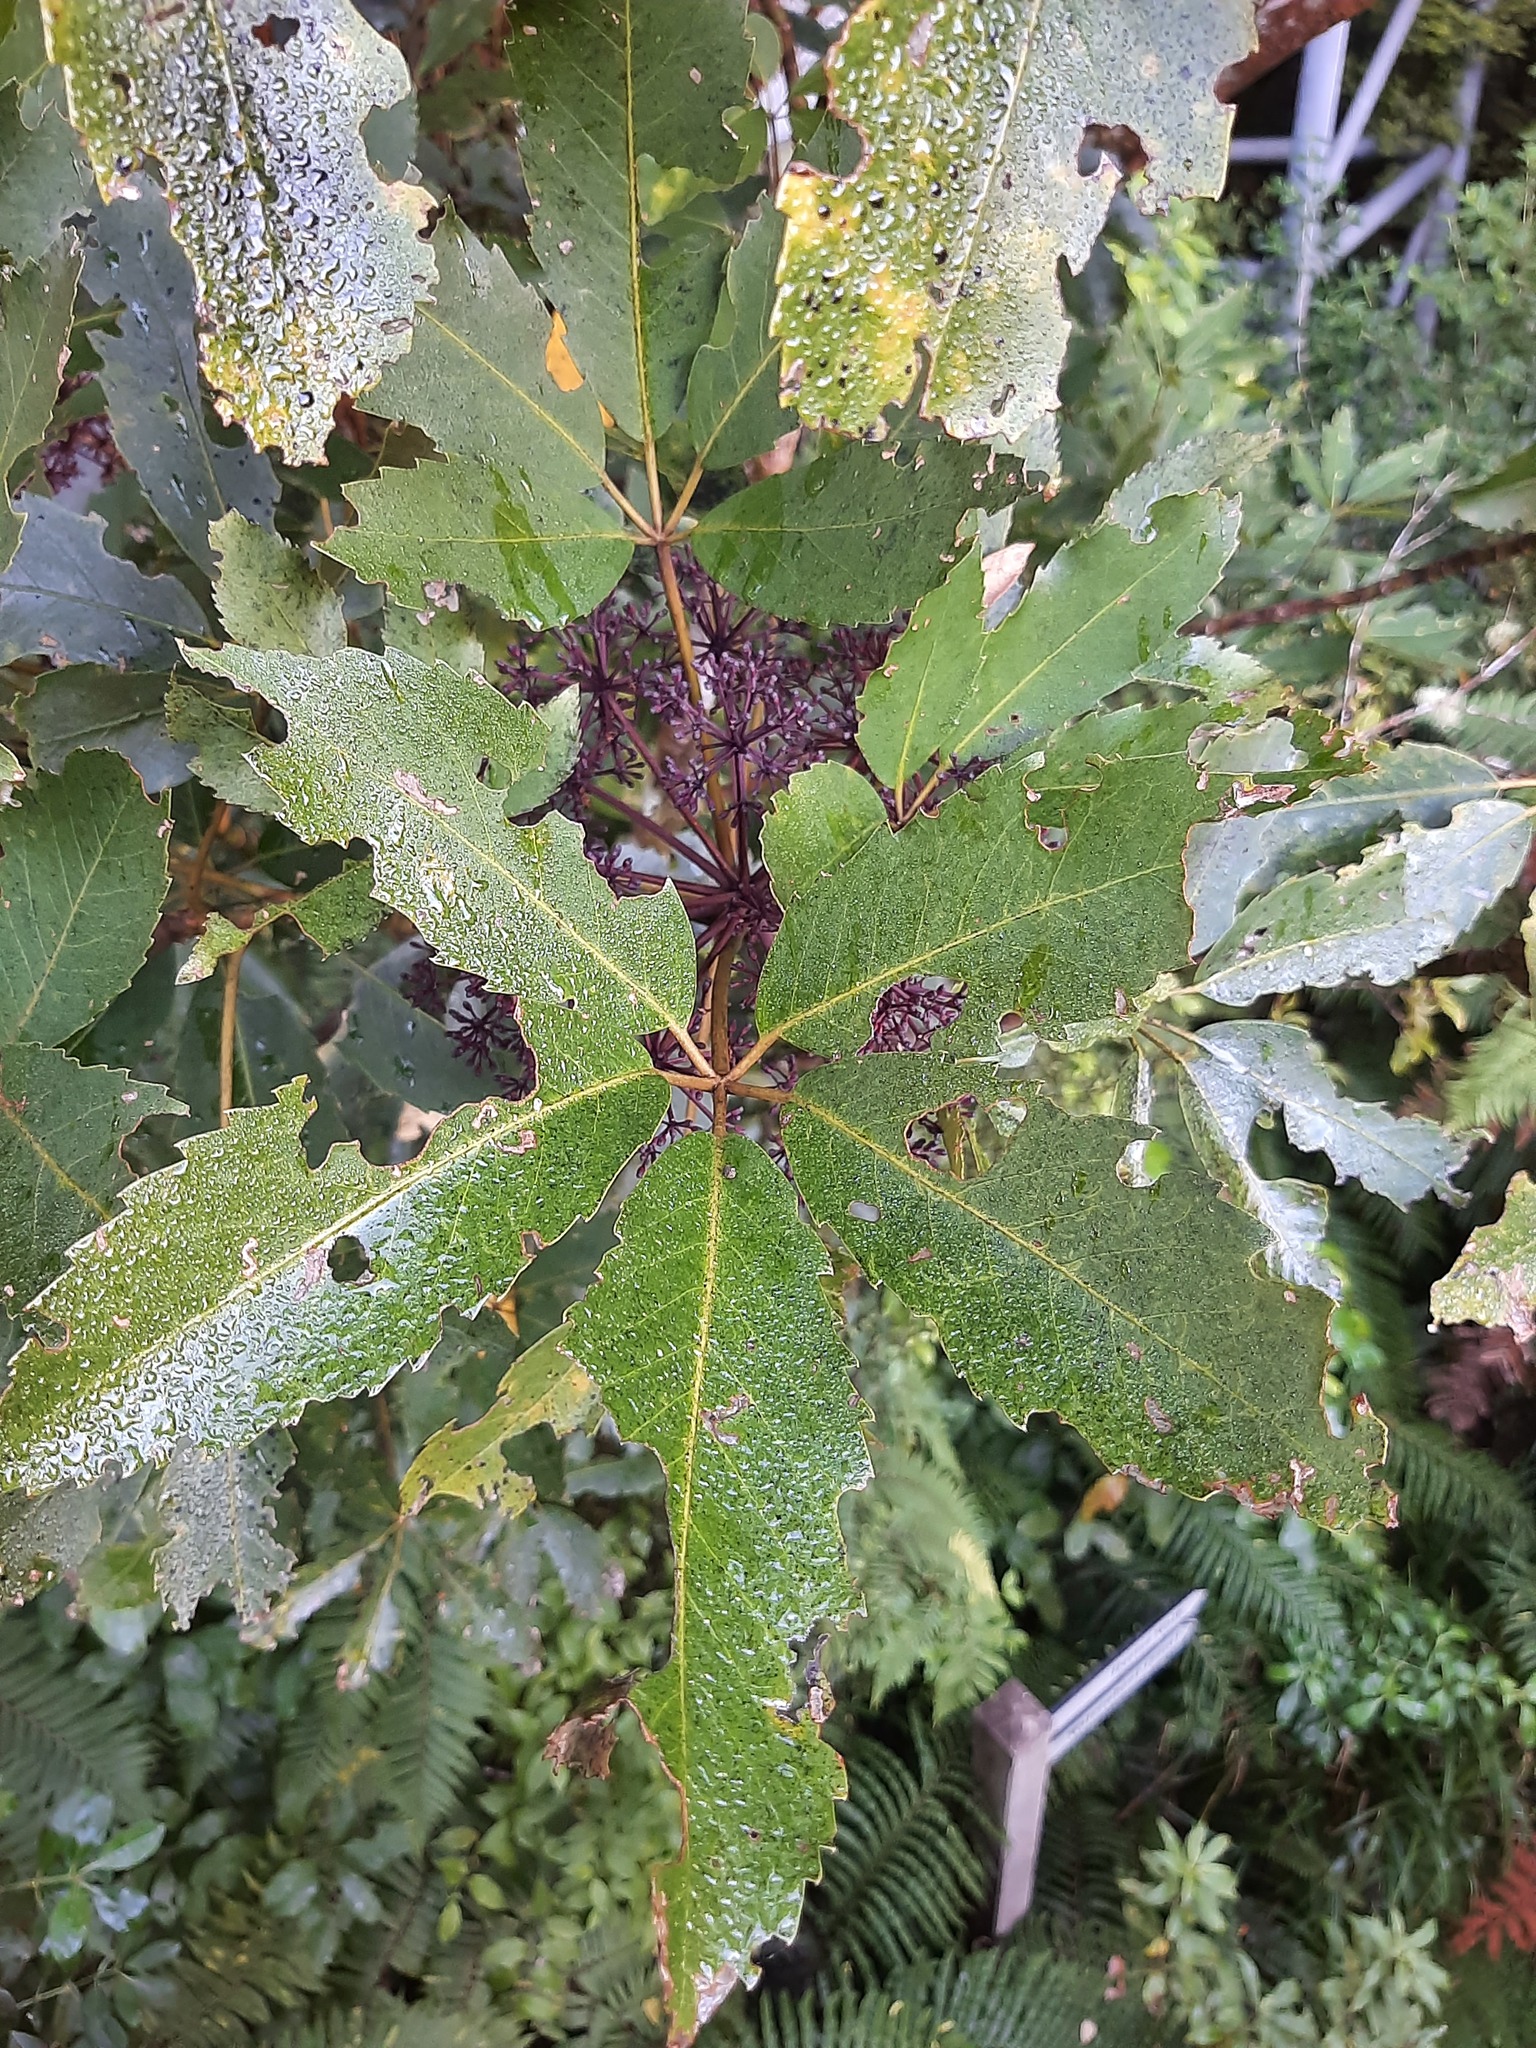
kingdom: Plantae
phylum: Tracheophyta
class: Magnoliopsida
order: Apiales
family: Araliaceae
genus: Neopanax
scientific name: Neopanax arboreus
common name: Five-fingers
